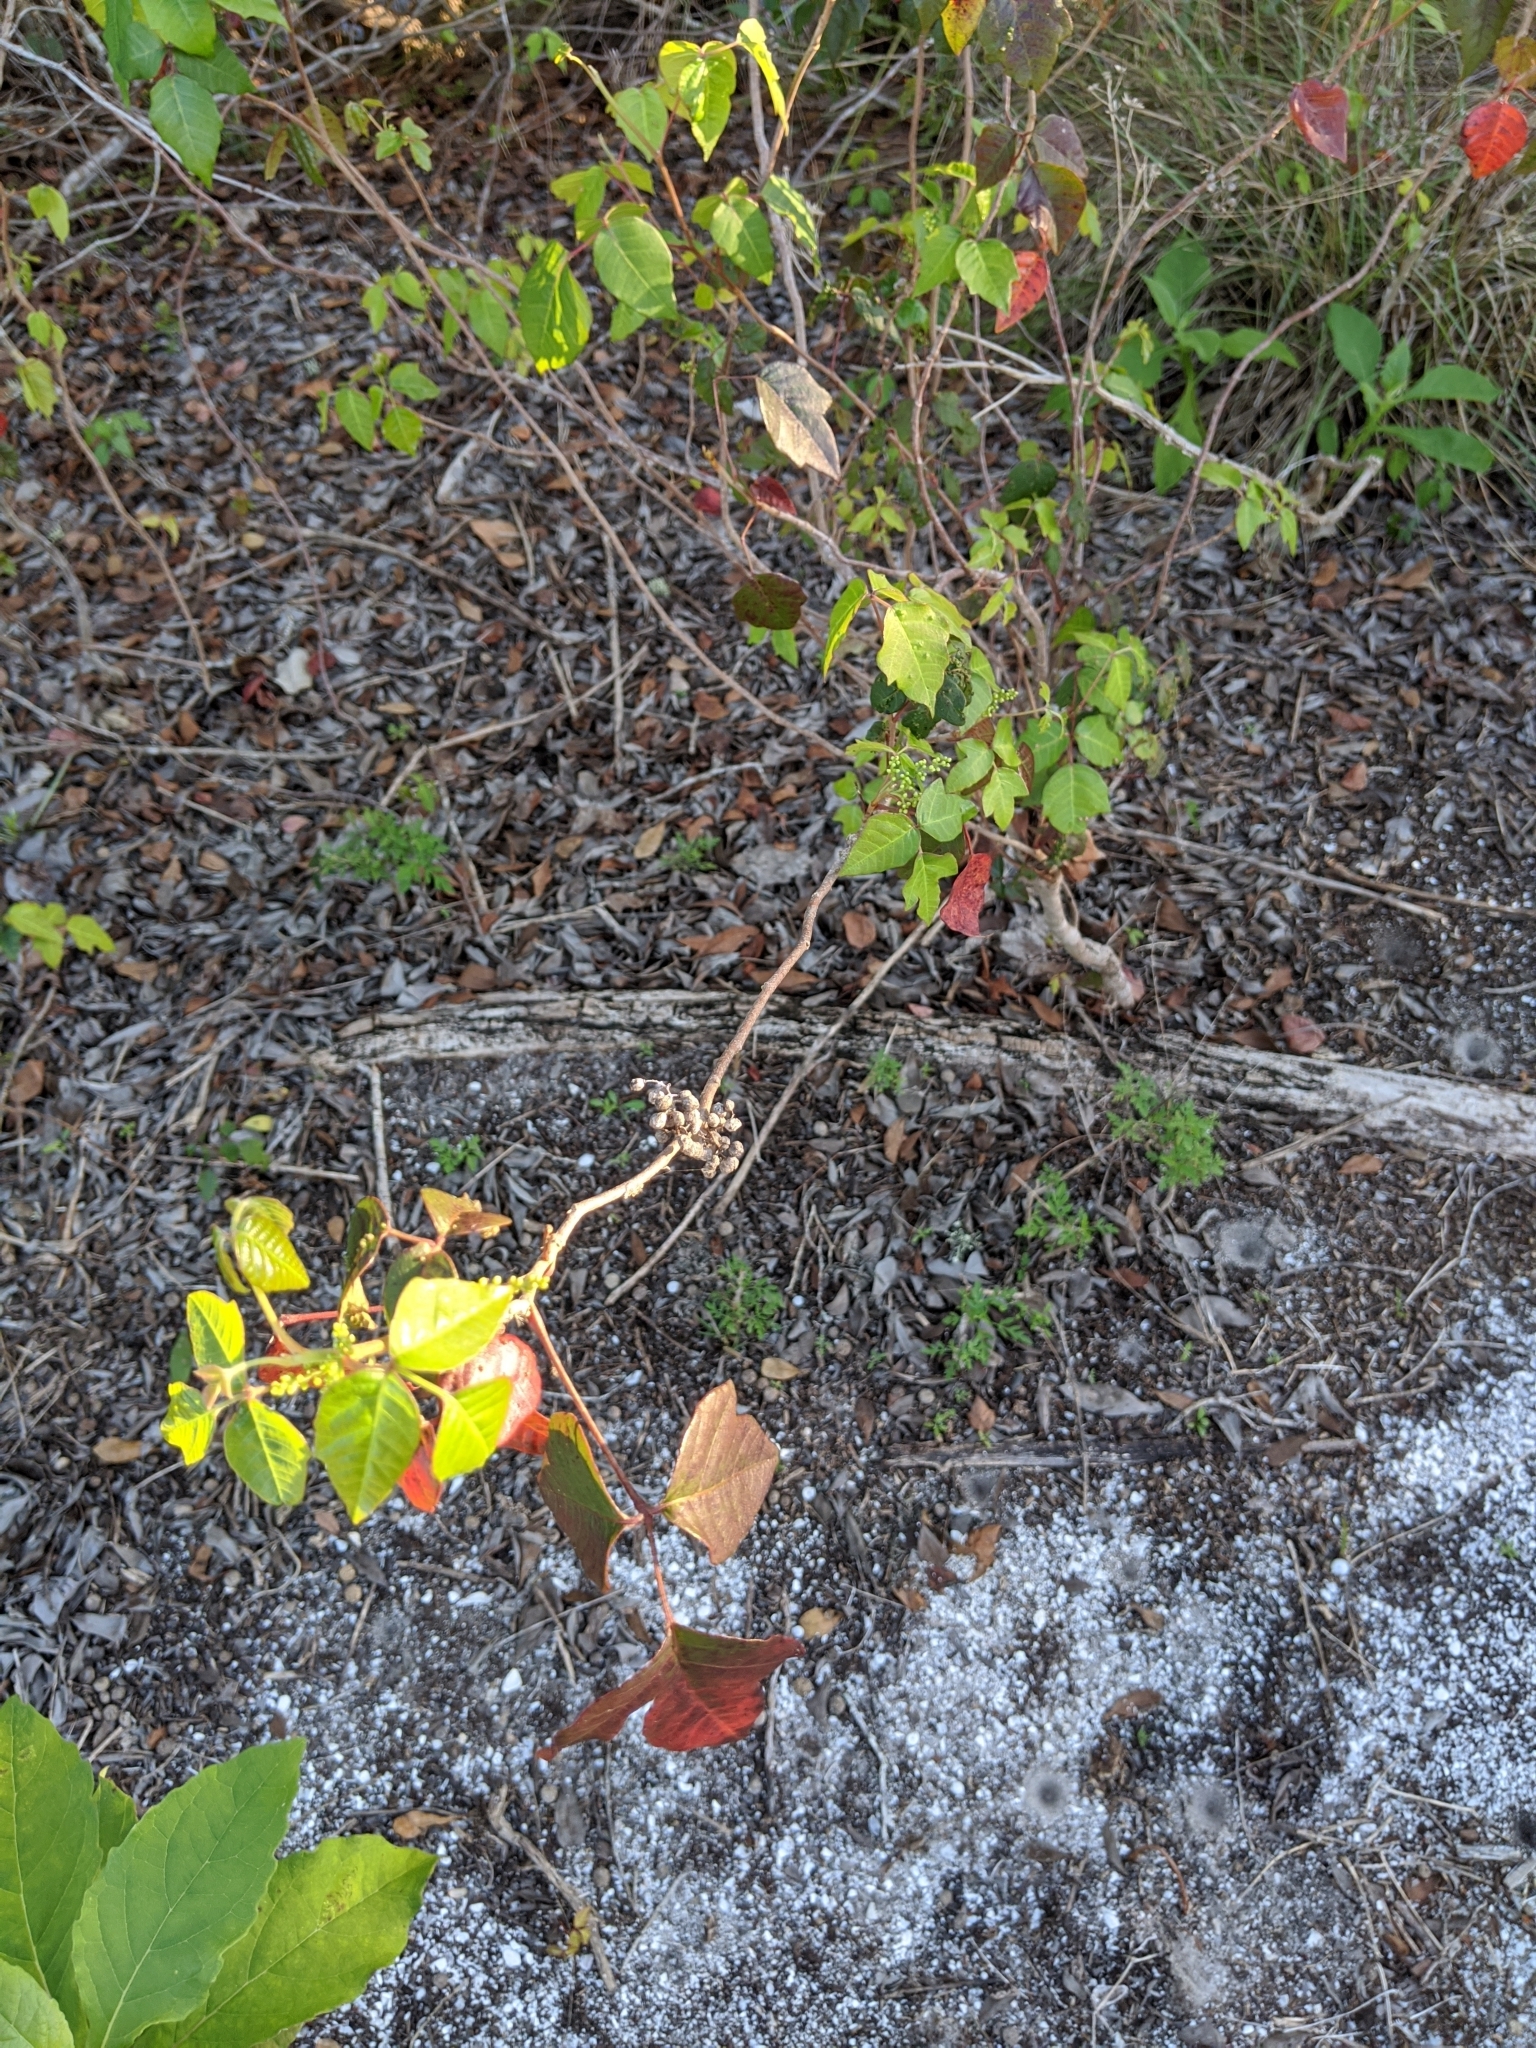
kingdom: Plantae
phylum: Tracheophyta
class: Magnoliopsida
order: Sapindales
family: Anacardiaceae
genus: Toxicodendron
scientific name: Toxicodendron radicans
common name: Poison ivy
